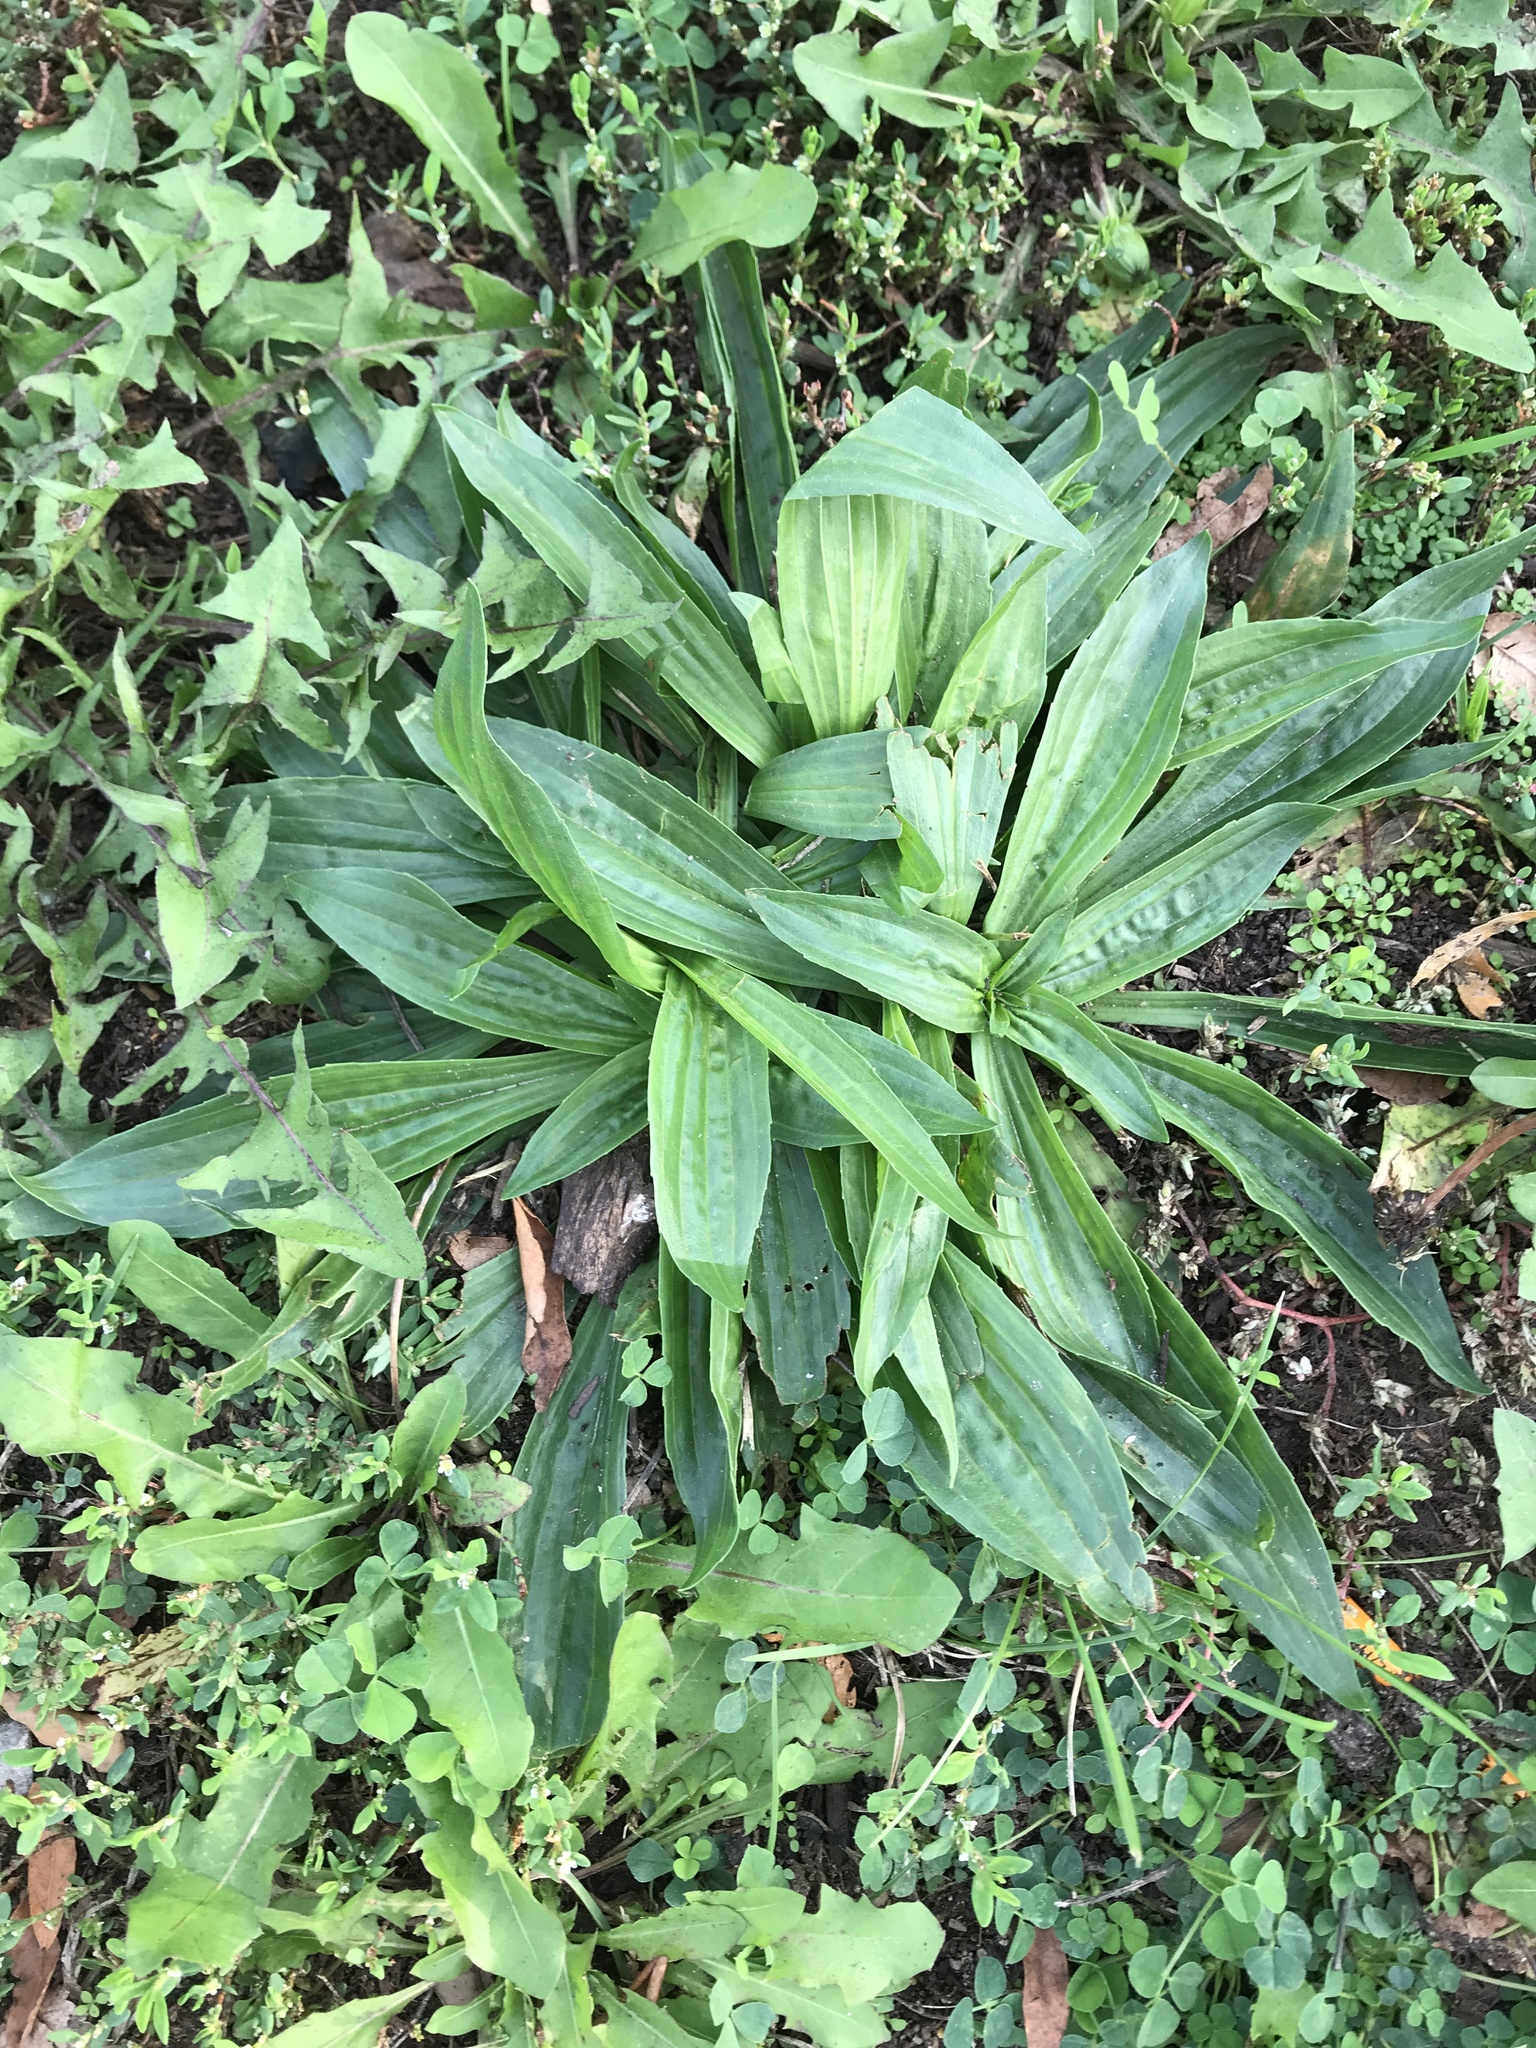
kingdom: Plantae
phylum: Tracheophyta
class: Magnoliopsida
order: Lamiales
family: Plantaginaceae
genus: Plantago
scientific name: Plantago lanceolata
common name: Ribwort plantain
